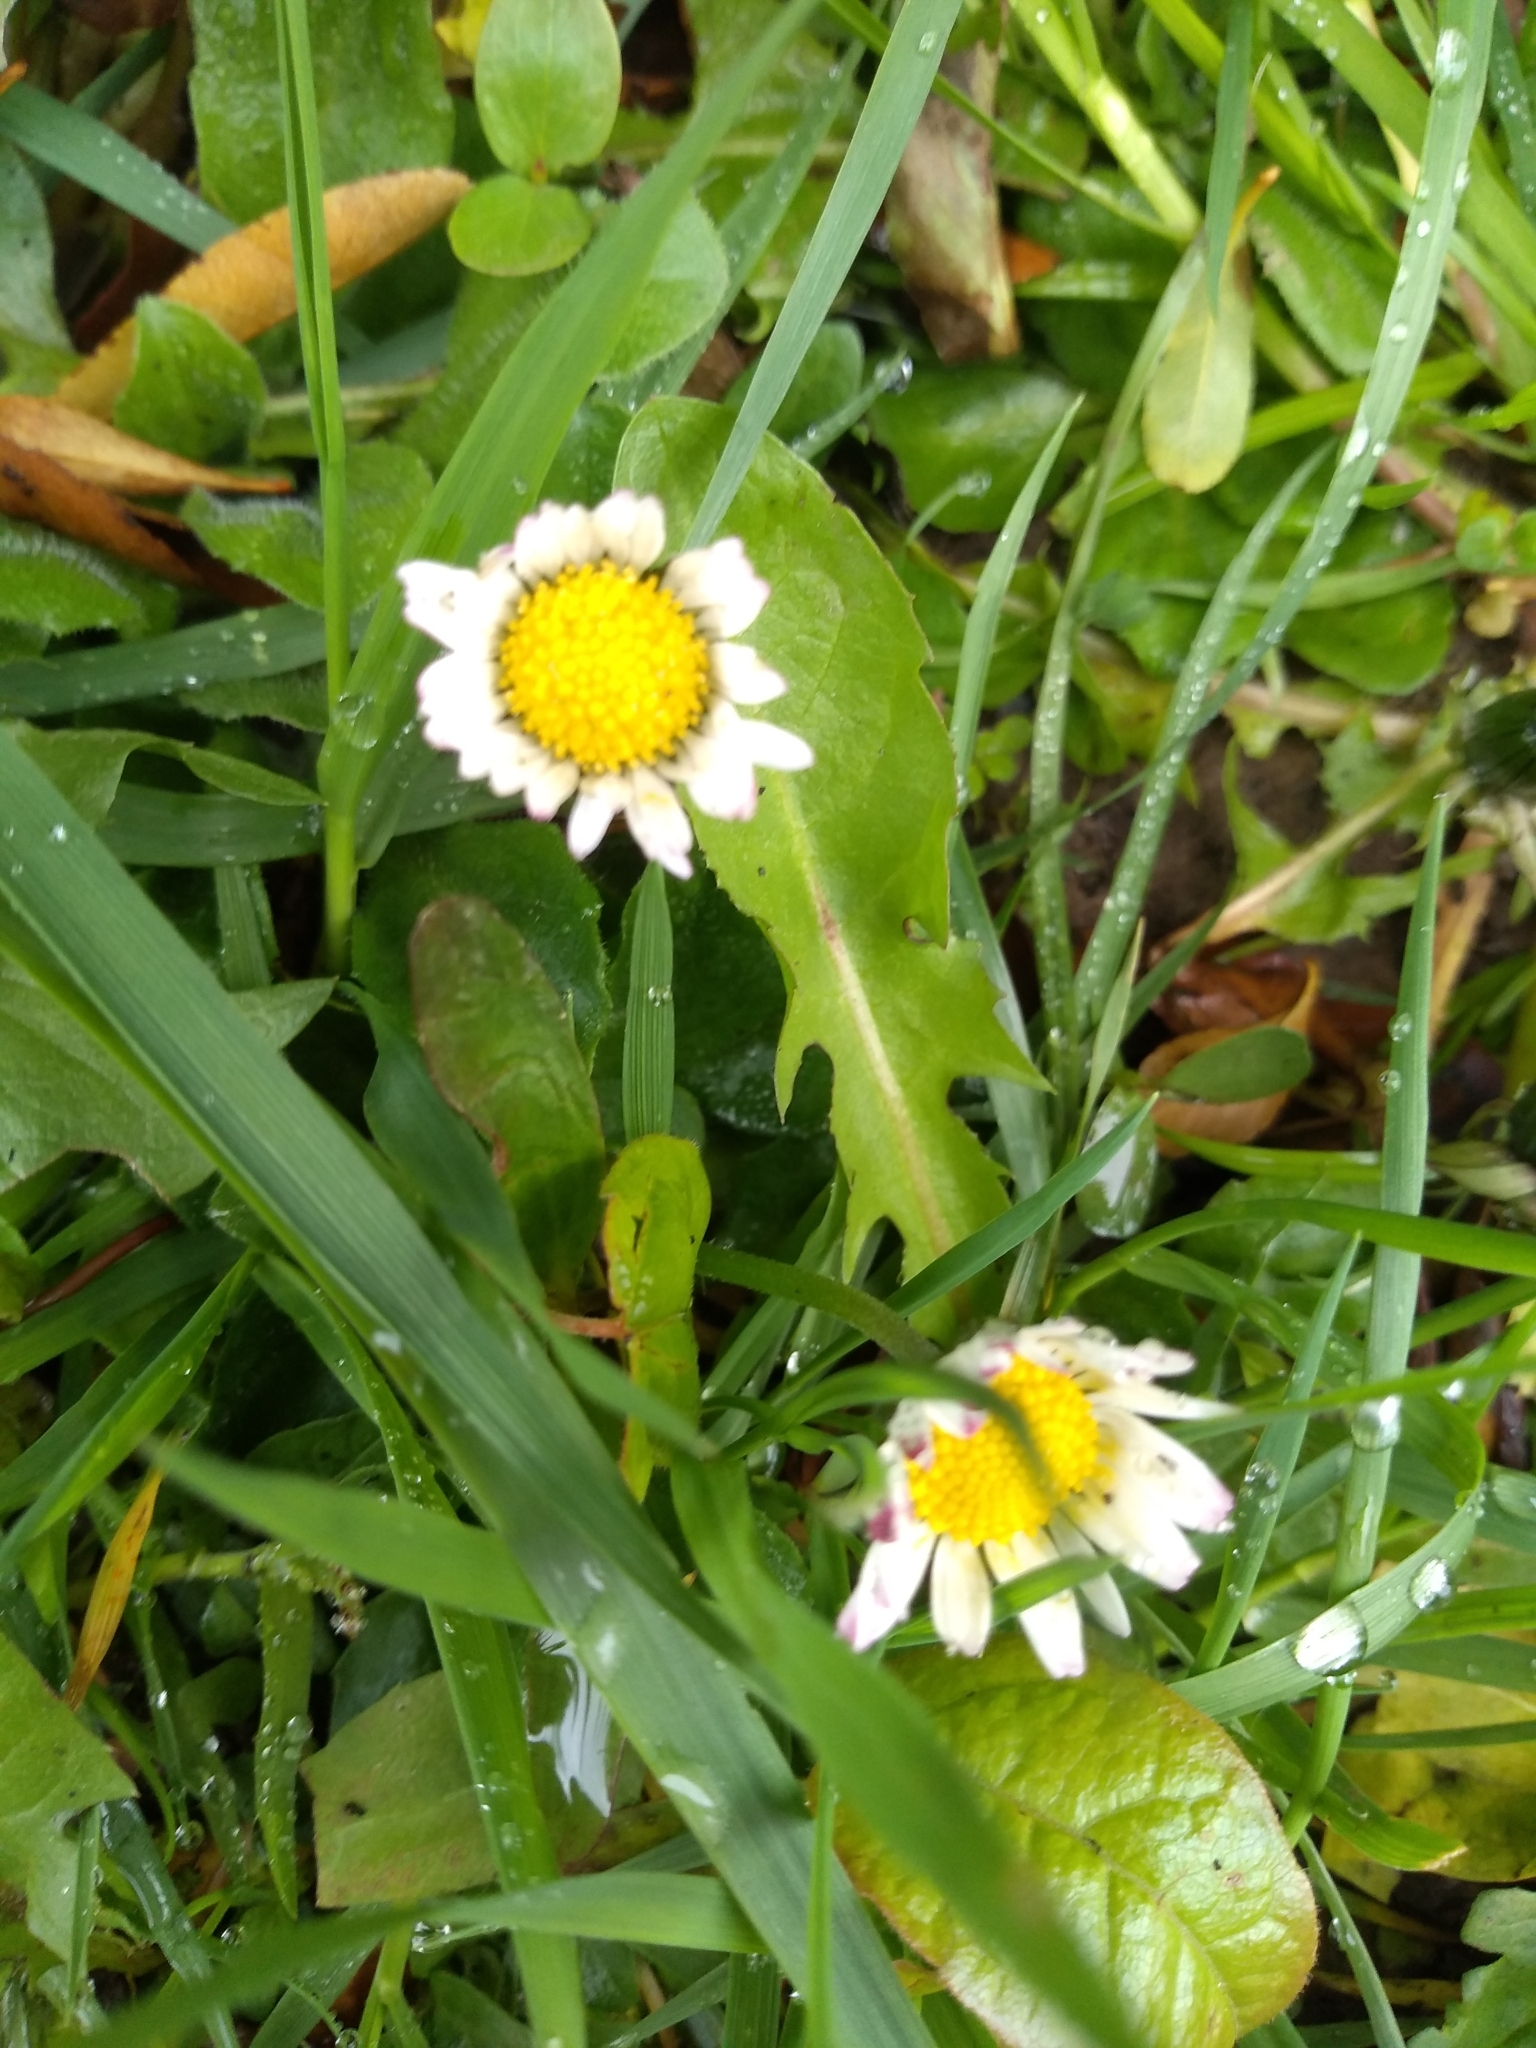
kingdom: Plantae
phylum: Tracheophyta
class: Magnoliopsida
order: Asterales
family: Asteraceae
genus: Bellis
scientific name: Bellis perennis
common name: Lawndaisy
